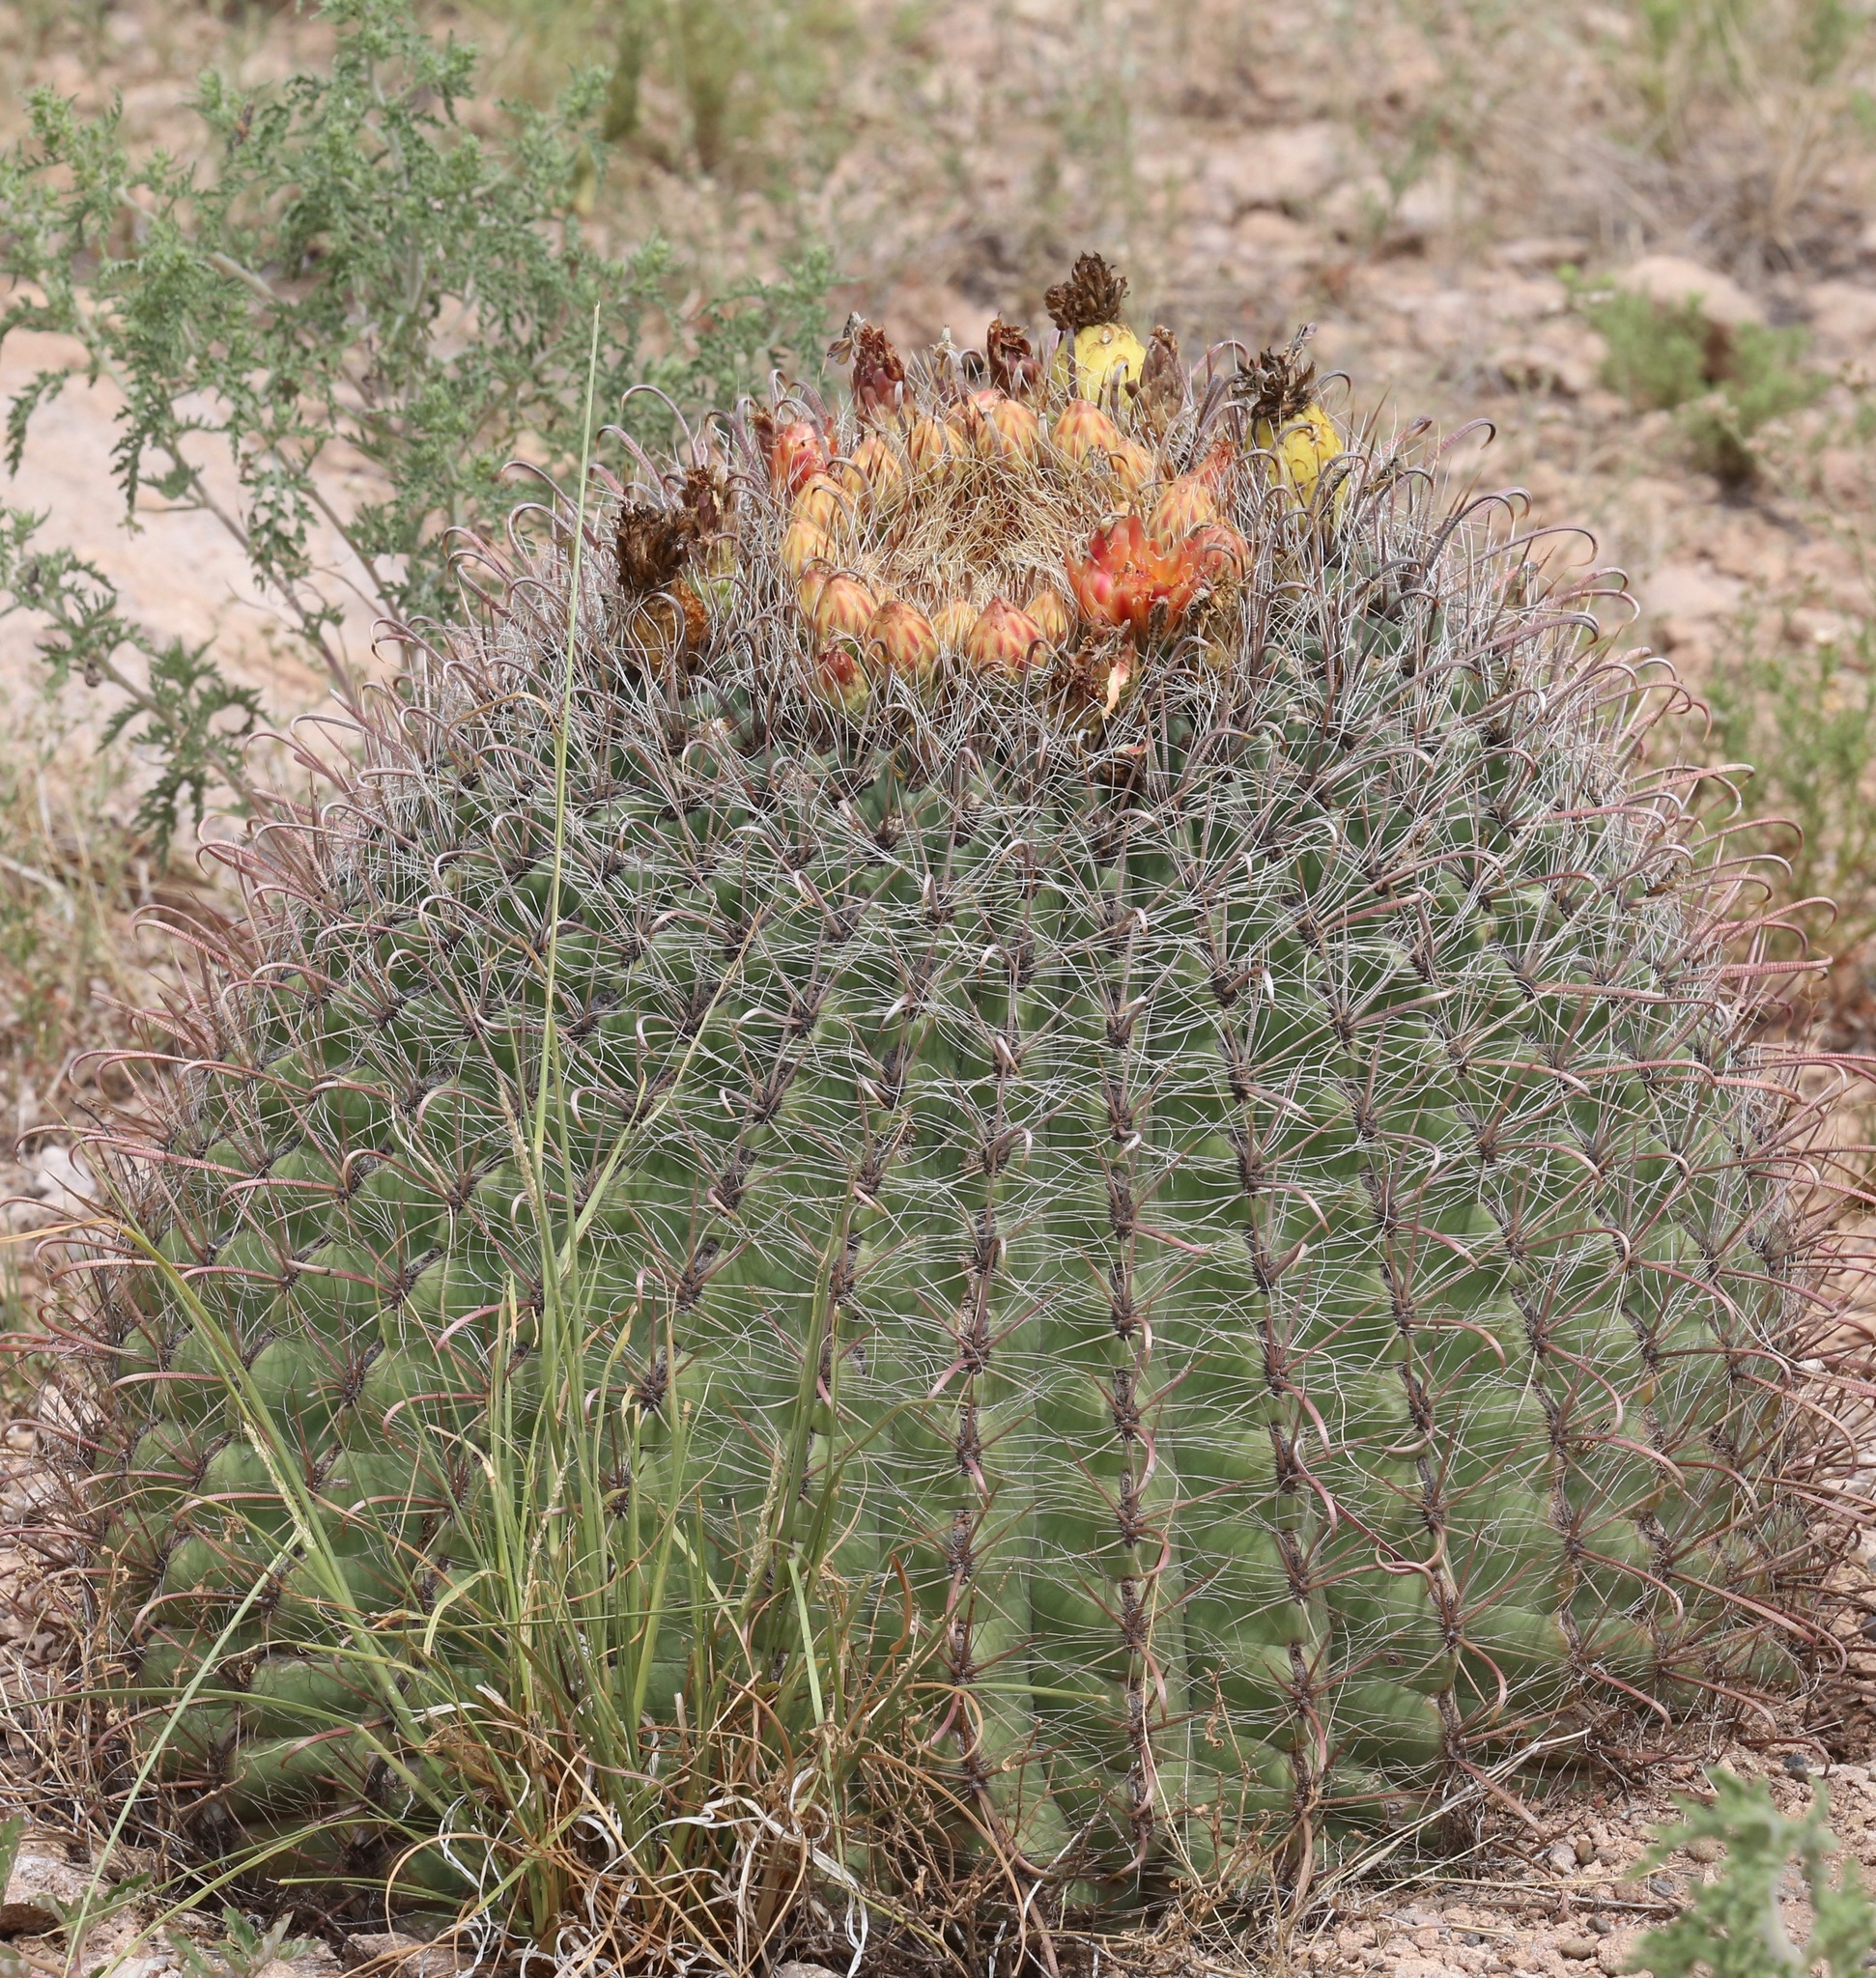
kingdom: Plantae
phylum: Tracheophyta
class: Magnoliopsida
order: Caryophyllales
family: Cactaceae
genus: Ferocactus
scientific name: Ferocactus wislizeni
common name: Candy barrel cactus
